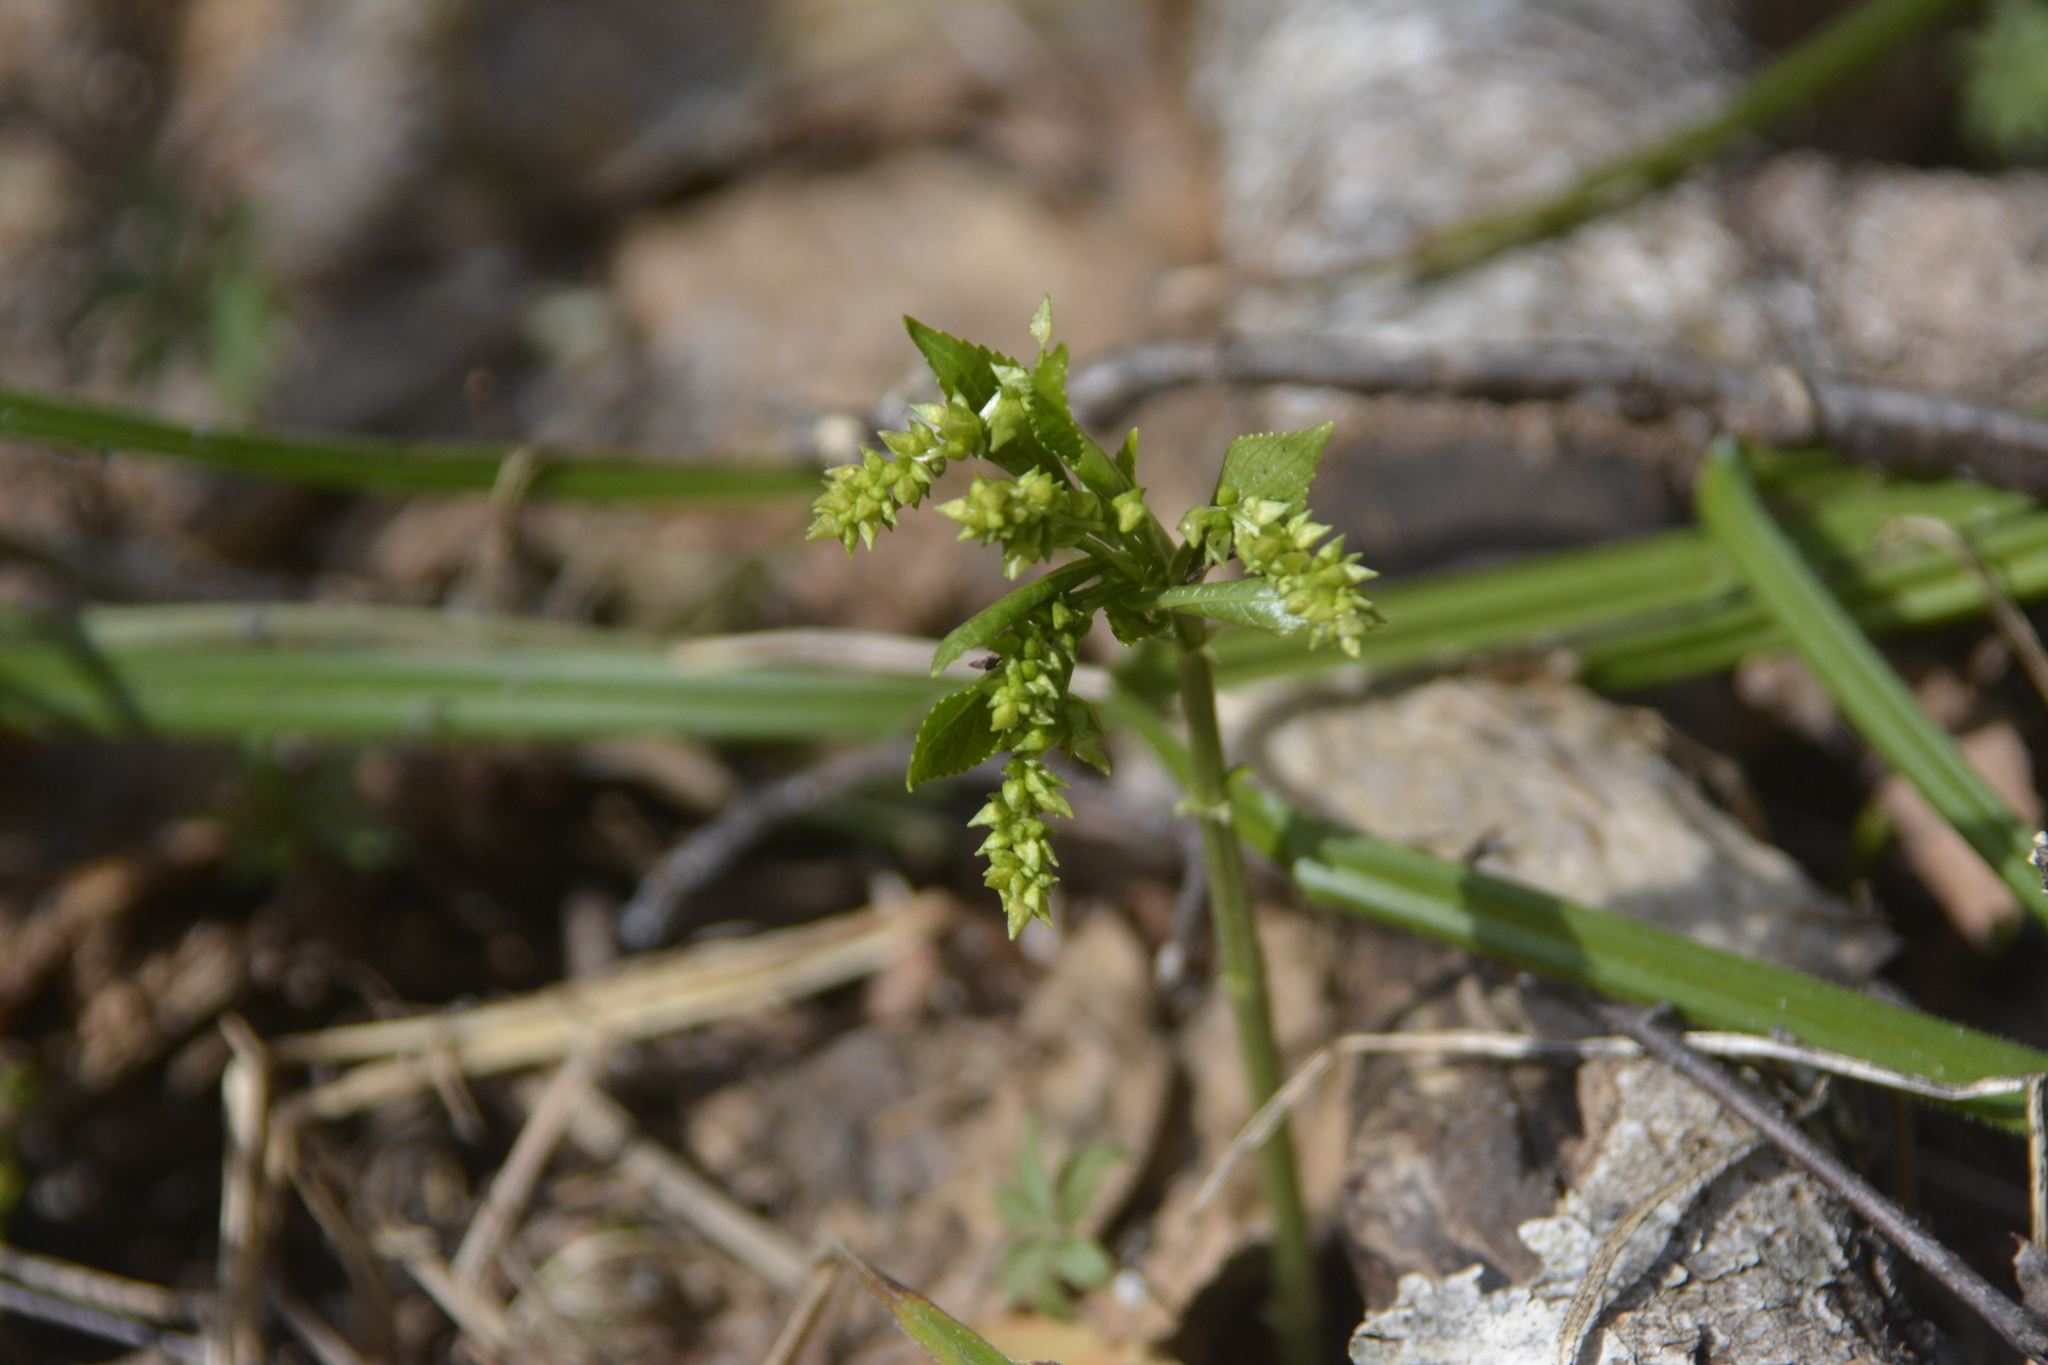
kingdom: Plantae
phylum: Tracheophyta
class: Magnoliopsida
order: Malpighiales
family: Euphorbiaceae
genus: Mercurialis
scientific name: Mercurialis perennis
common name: Dog mercury
